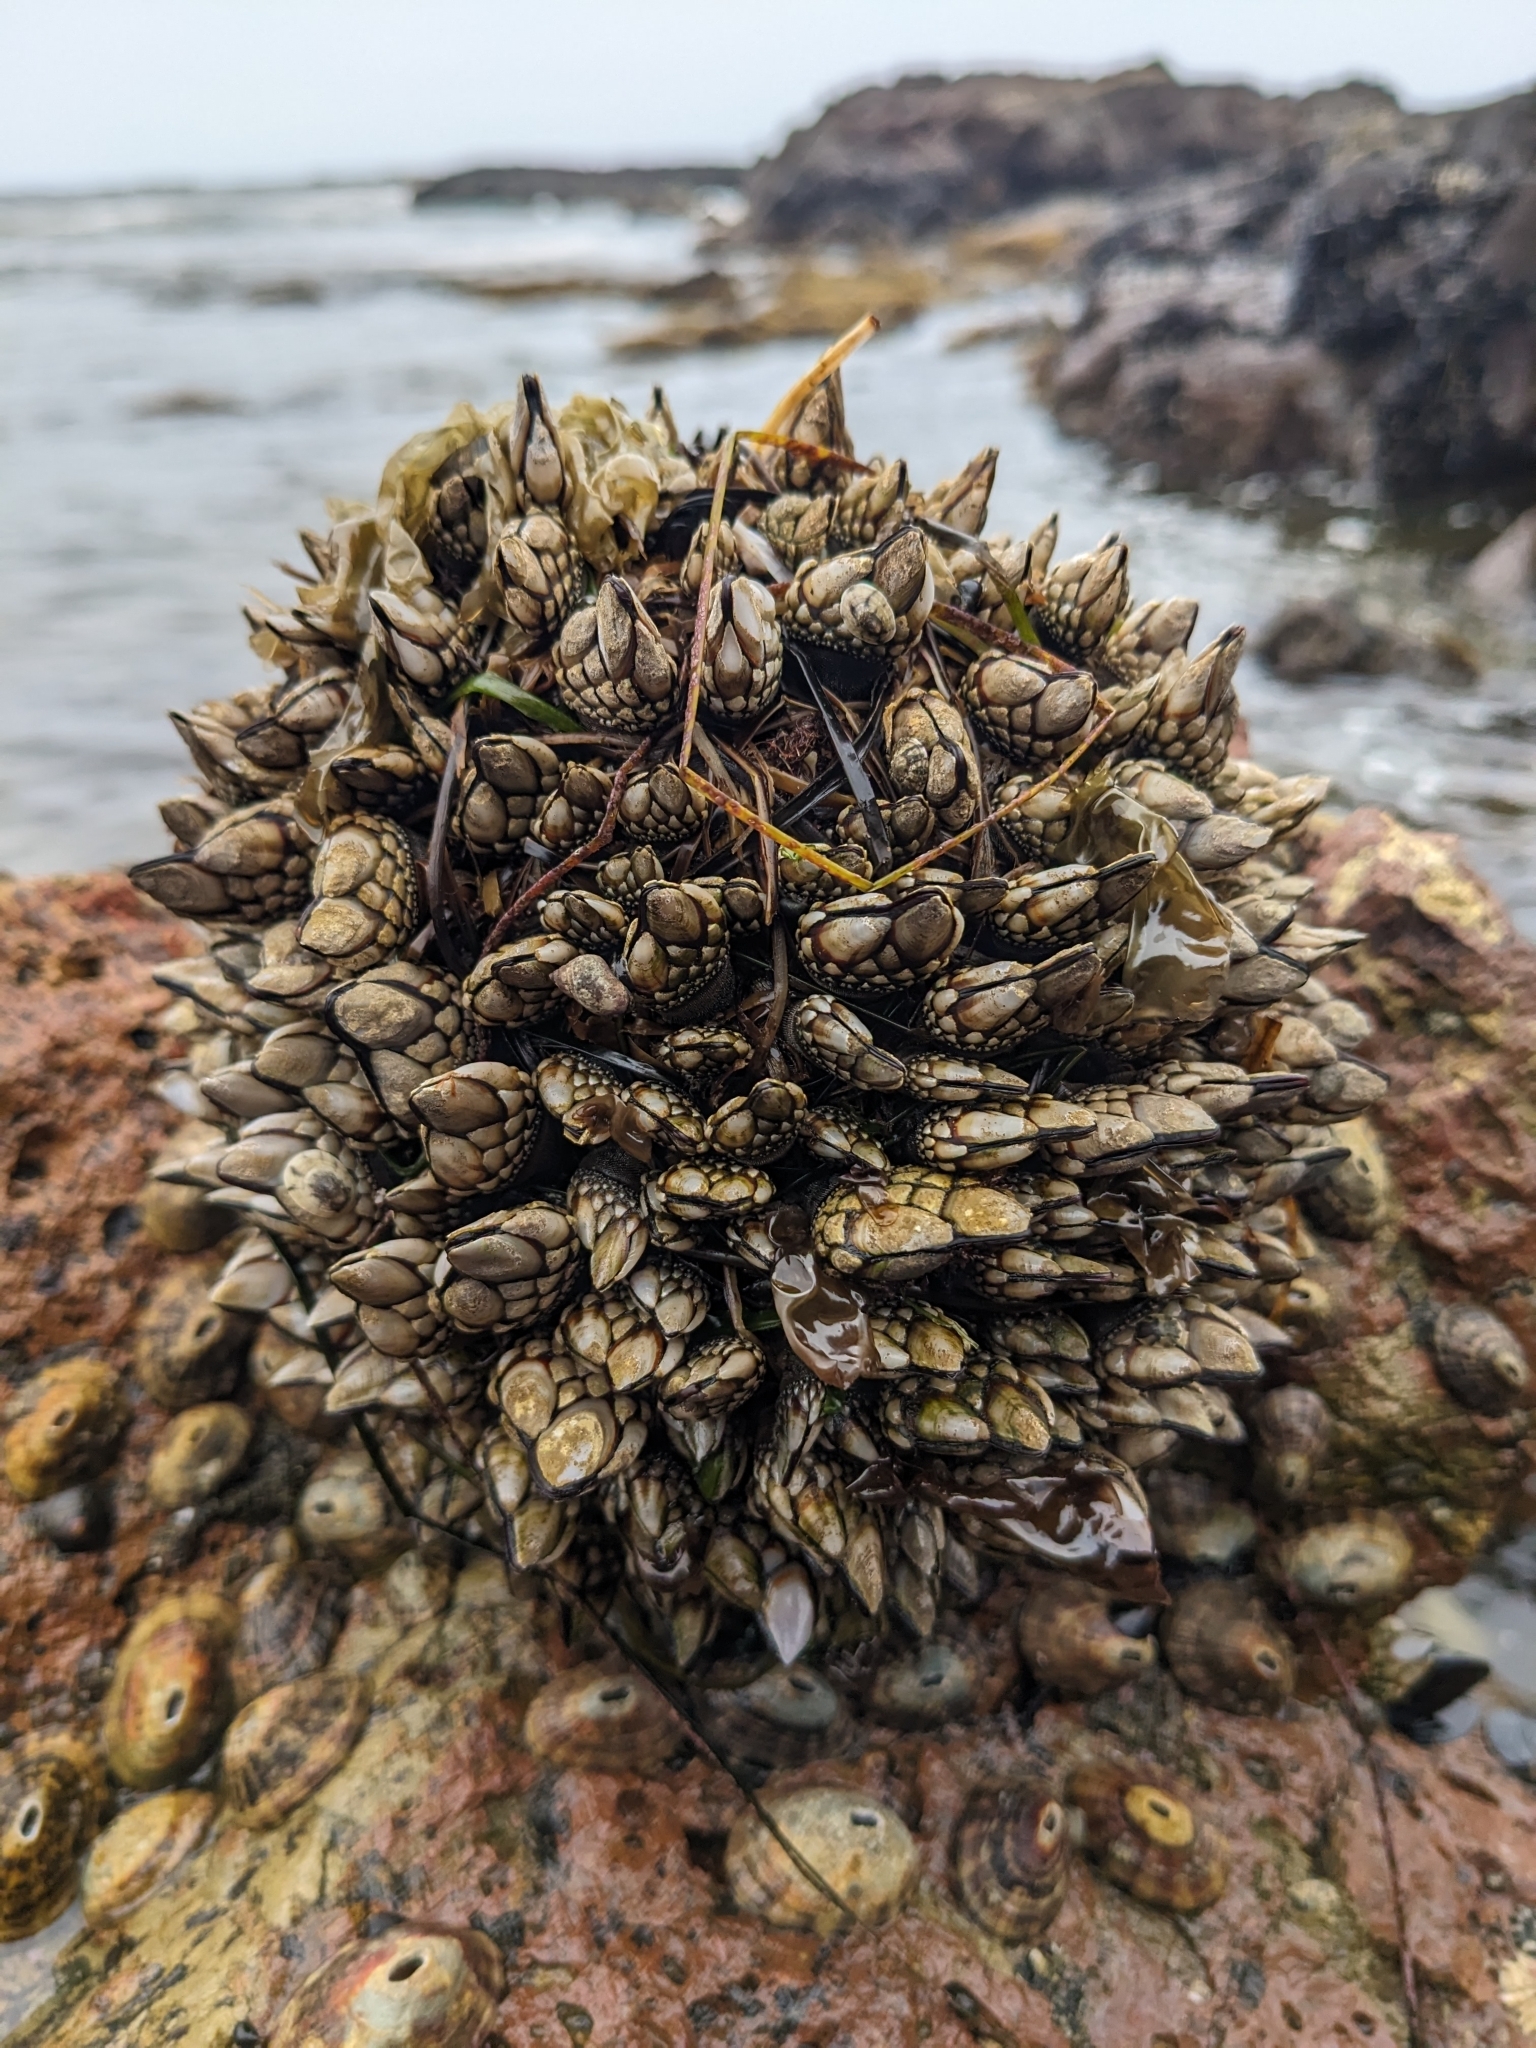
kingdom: Animalia
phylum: Arthropoda
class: Maxillopoda
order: Pedunculata
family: Pollicipedidae
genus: Pollicipes
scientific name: Pollicipes polymerus
